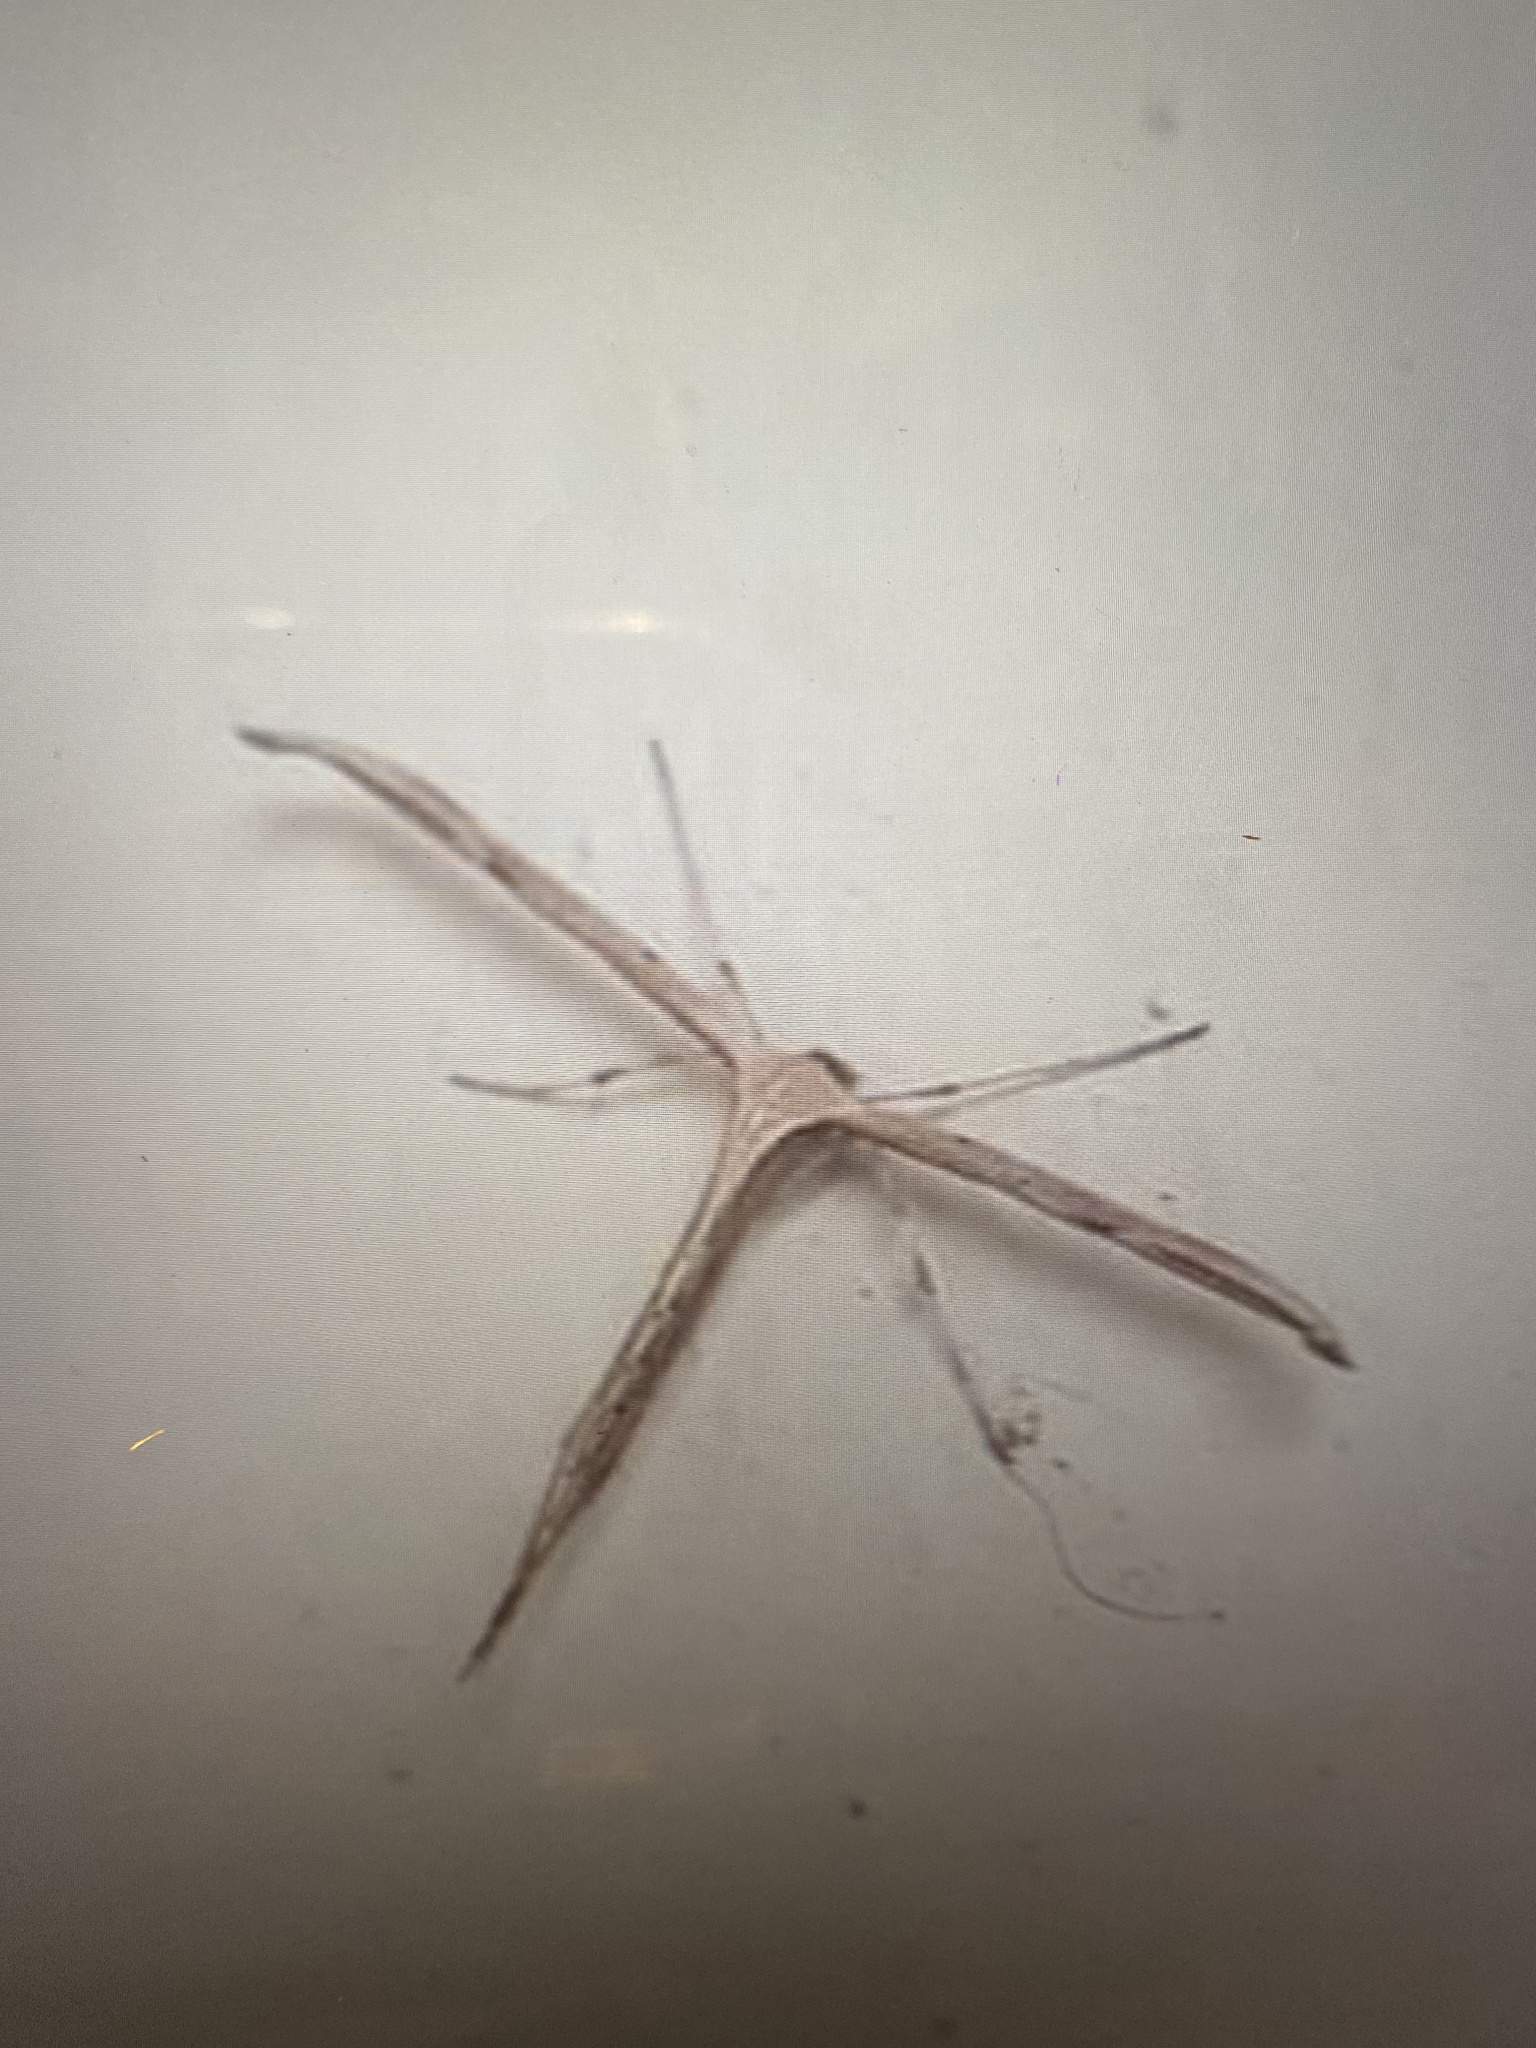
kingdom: Animalia
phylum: Arthropoda
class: Insecta
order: Lepidoptera
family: Pterophoridae
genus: Emmelina
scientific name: Emmelina monodactyla
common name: Common plume
